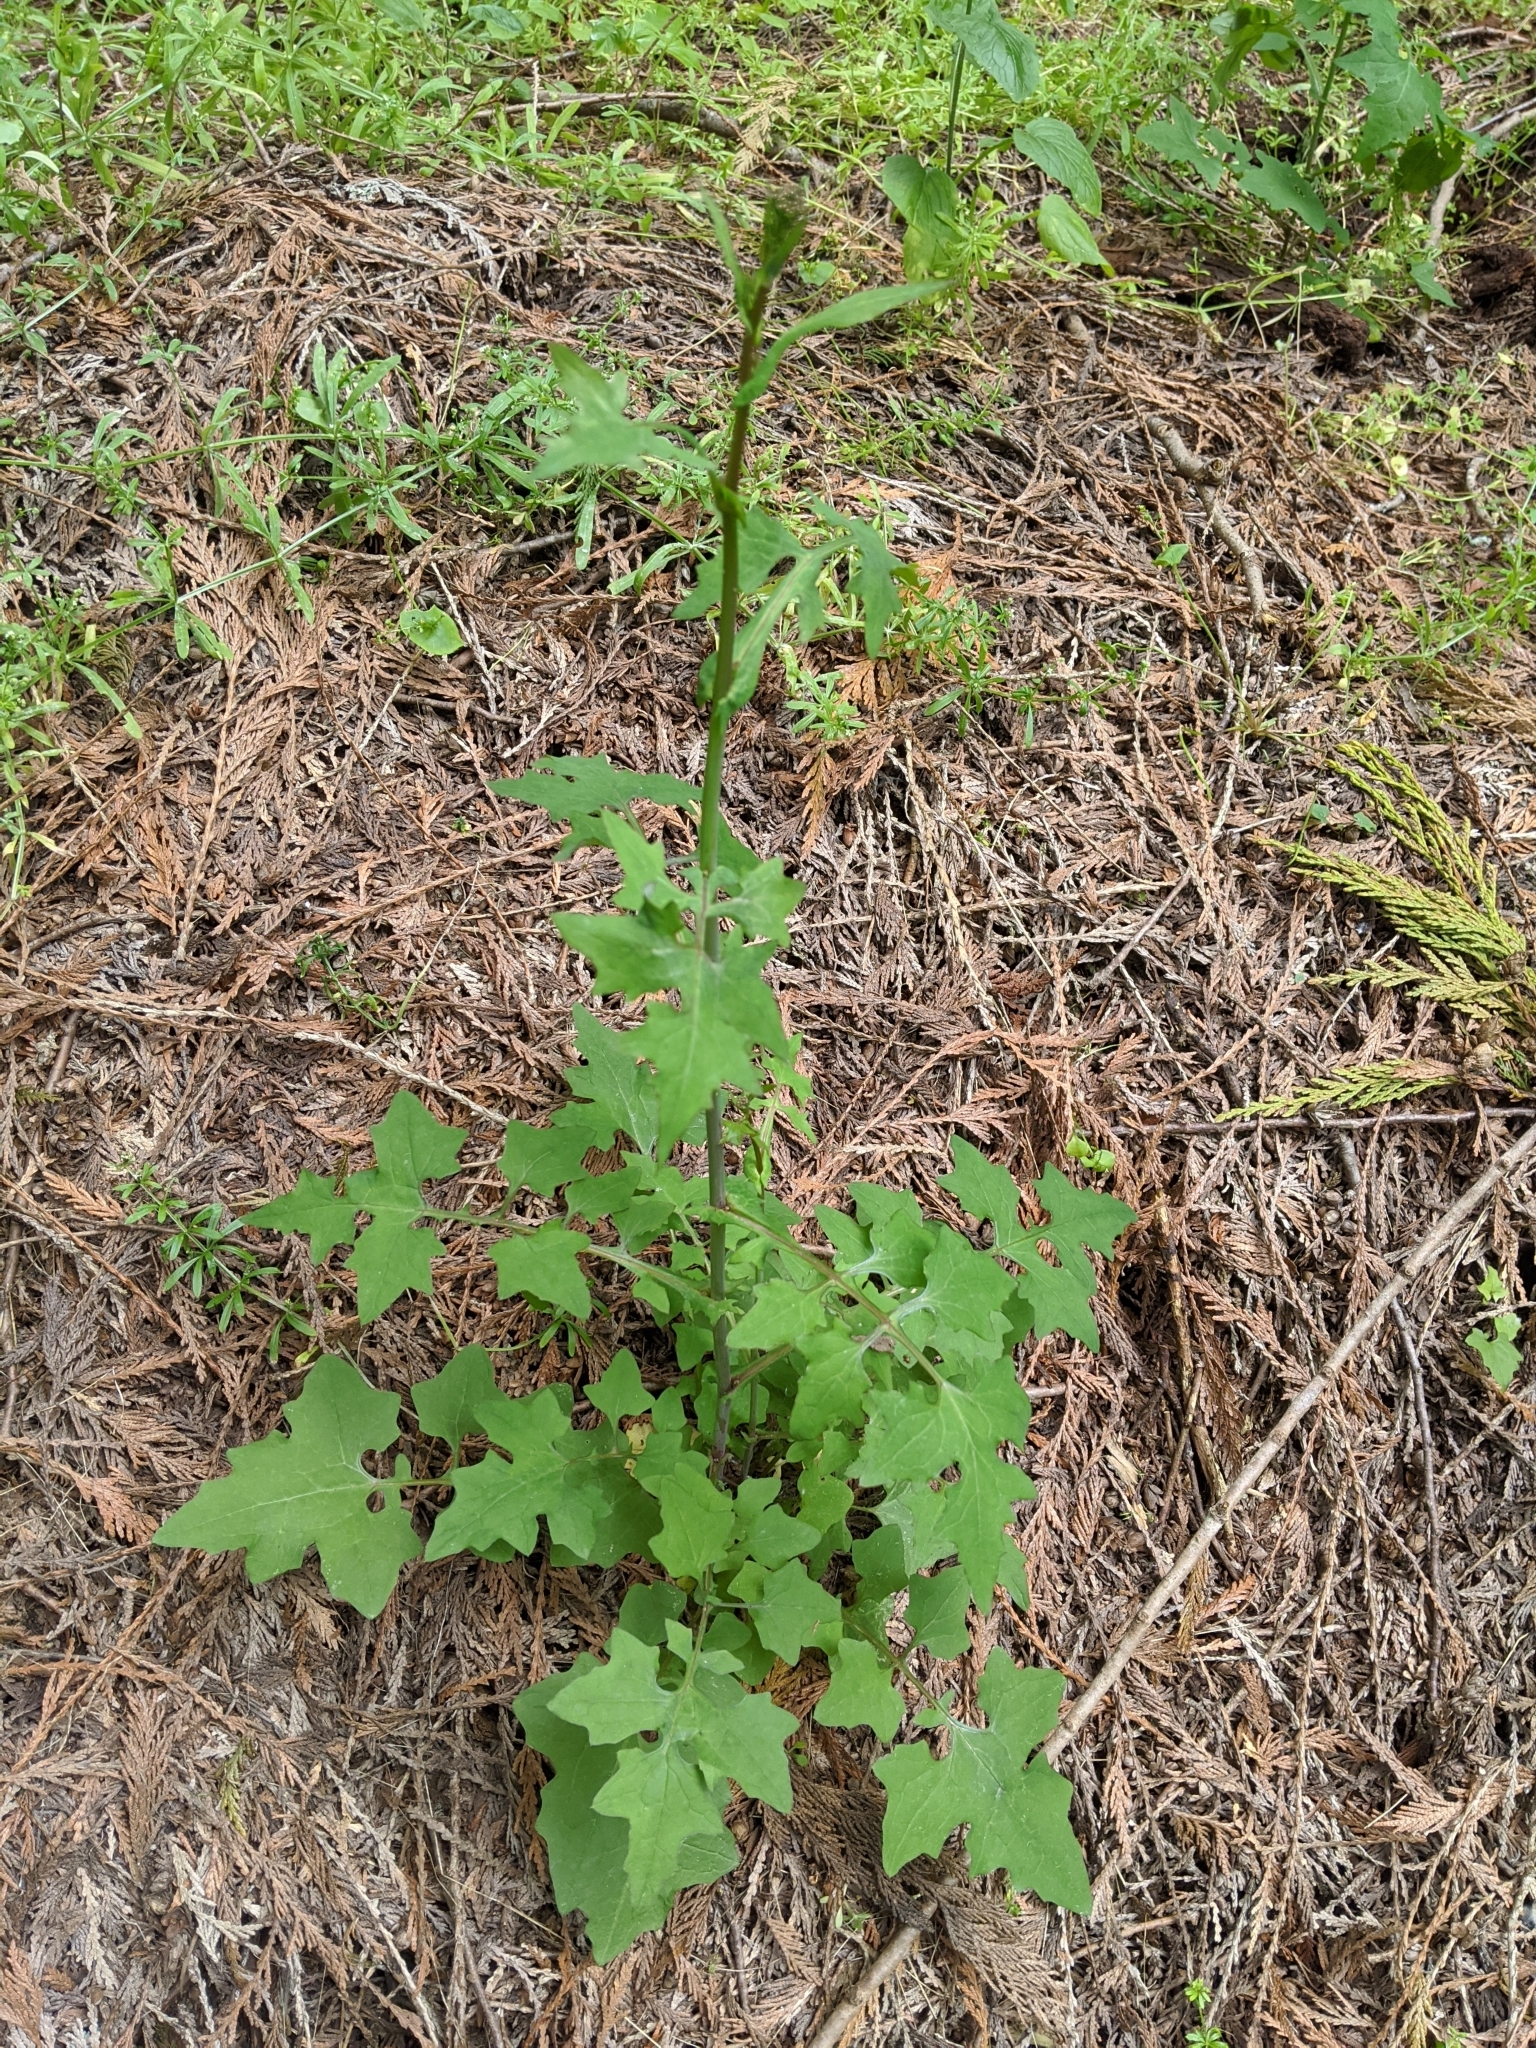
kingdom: Plantae
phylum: Tracheophyta
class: Magnoliopsida
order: Asterales
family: Asteraceae
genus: Mycelis
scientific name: Mycelis muralis
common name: Wall lettuce
